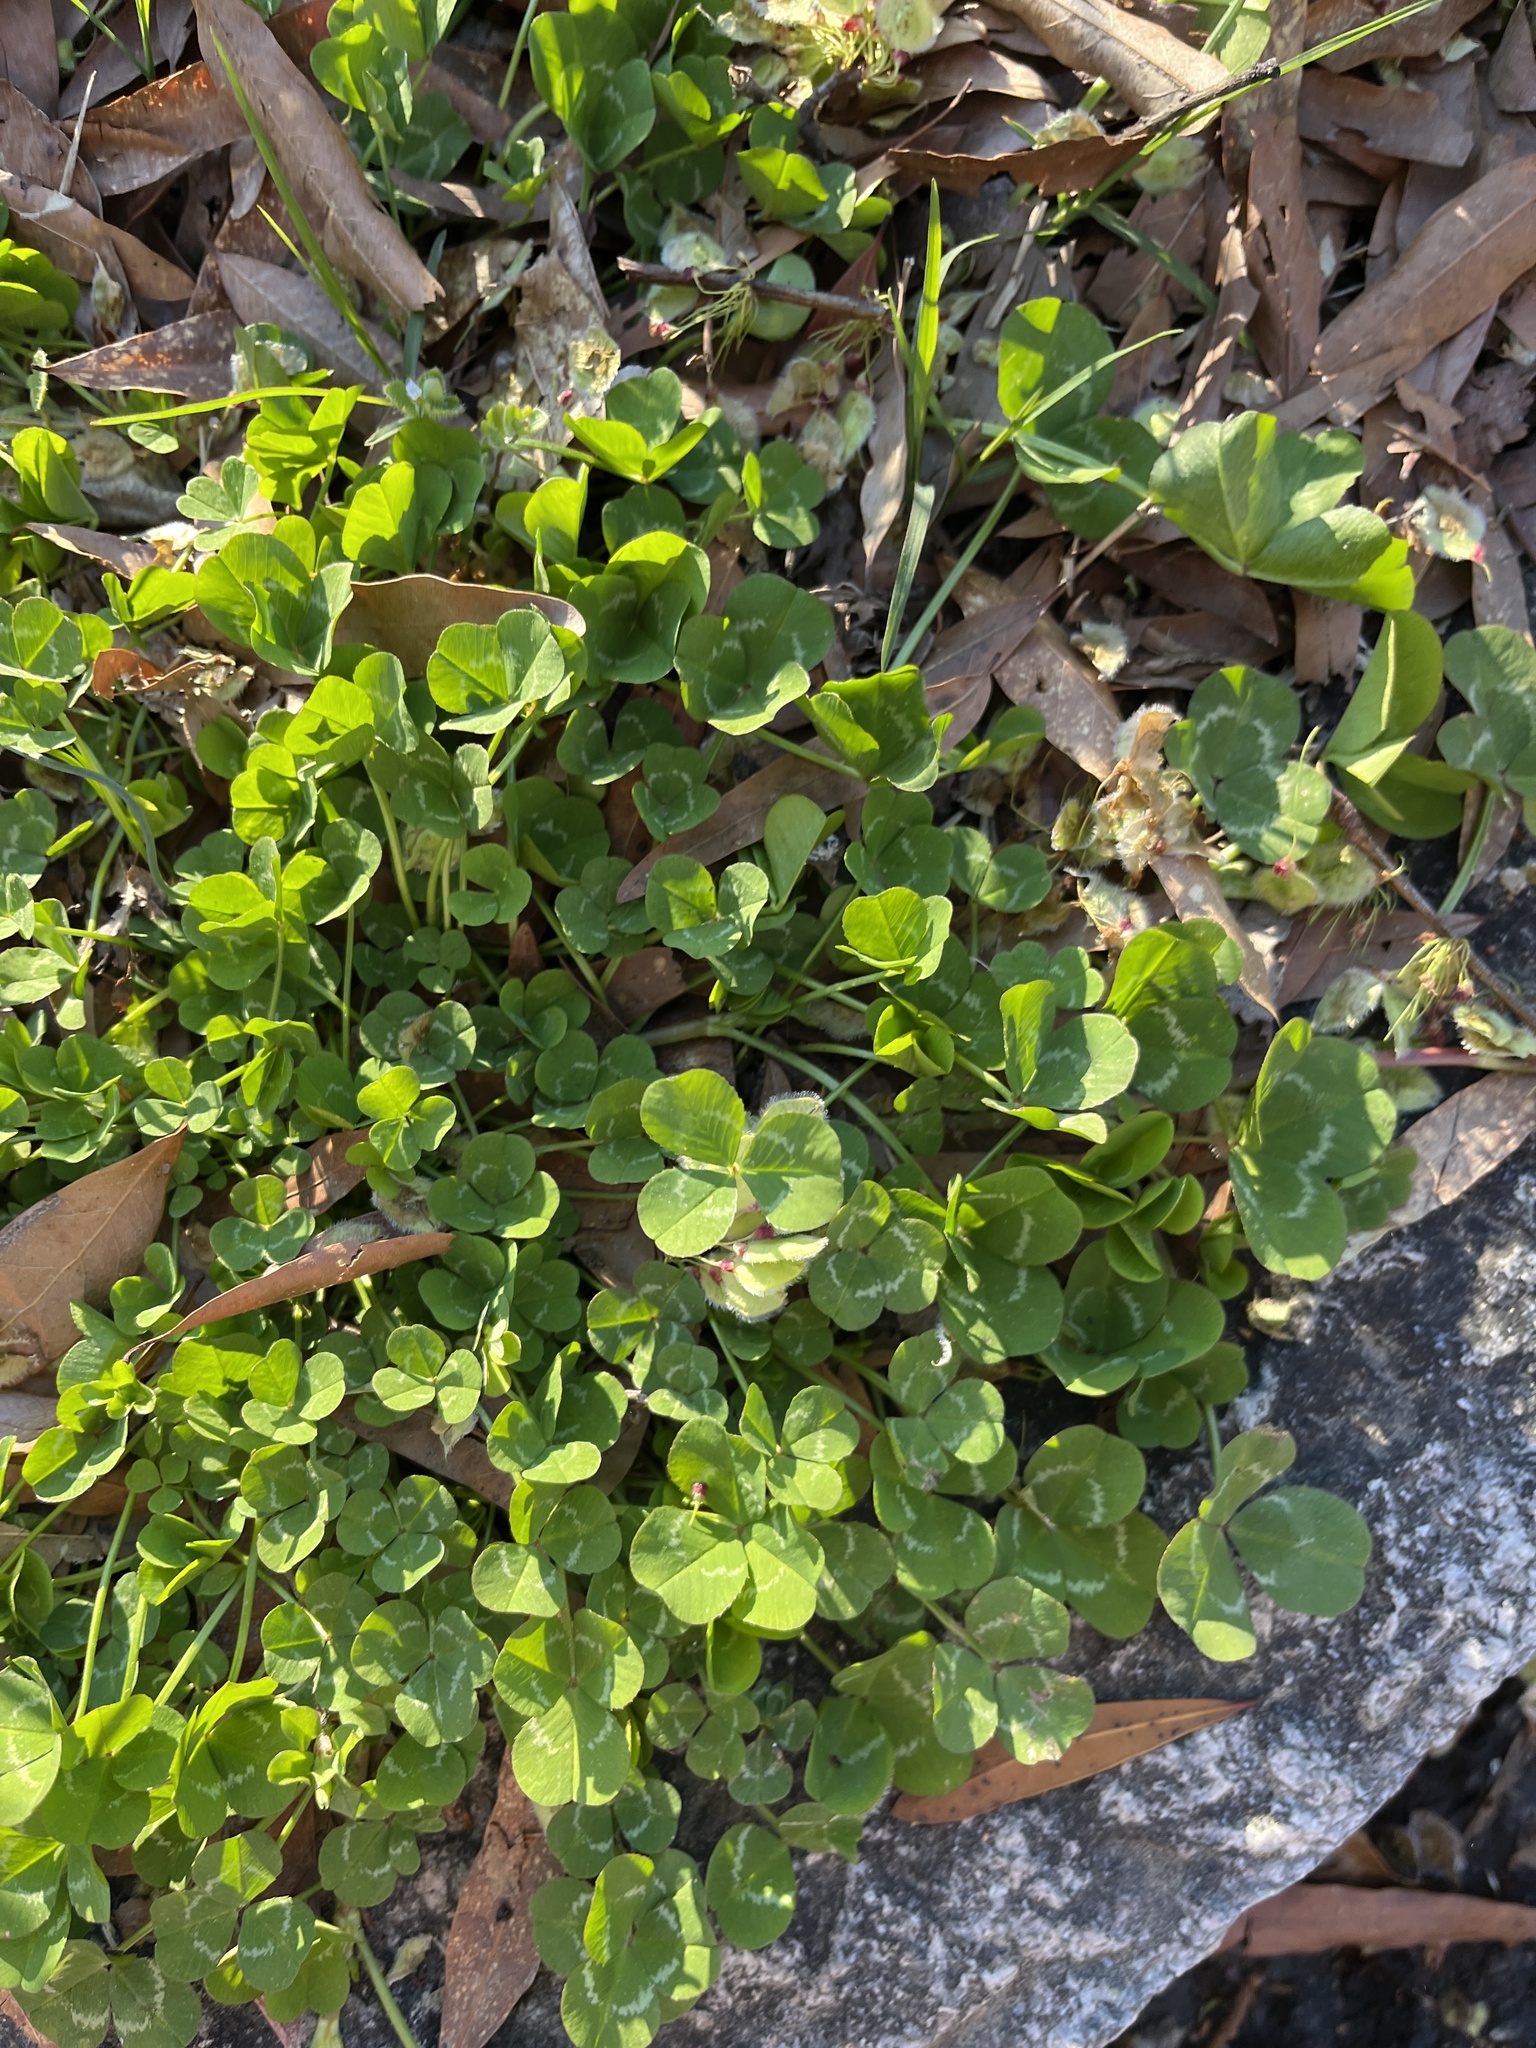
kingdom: Plantae
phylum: Tracheophyta
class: Magnoliopsida
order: Fabales
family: Fabaceae
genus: Trifolium
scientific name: Trifolium repens
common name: White clover
